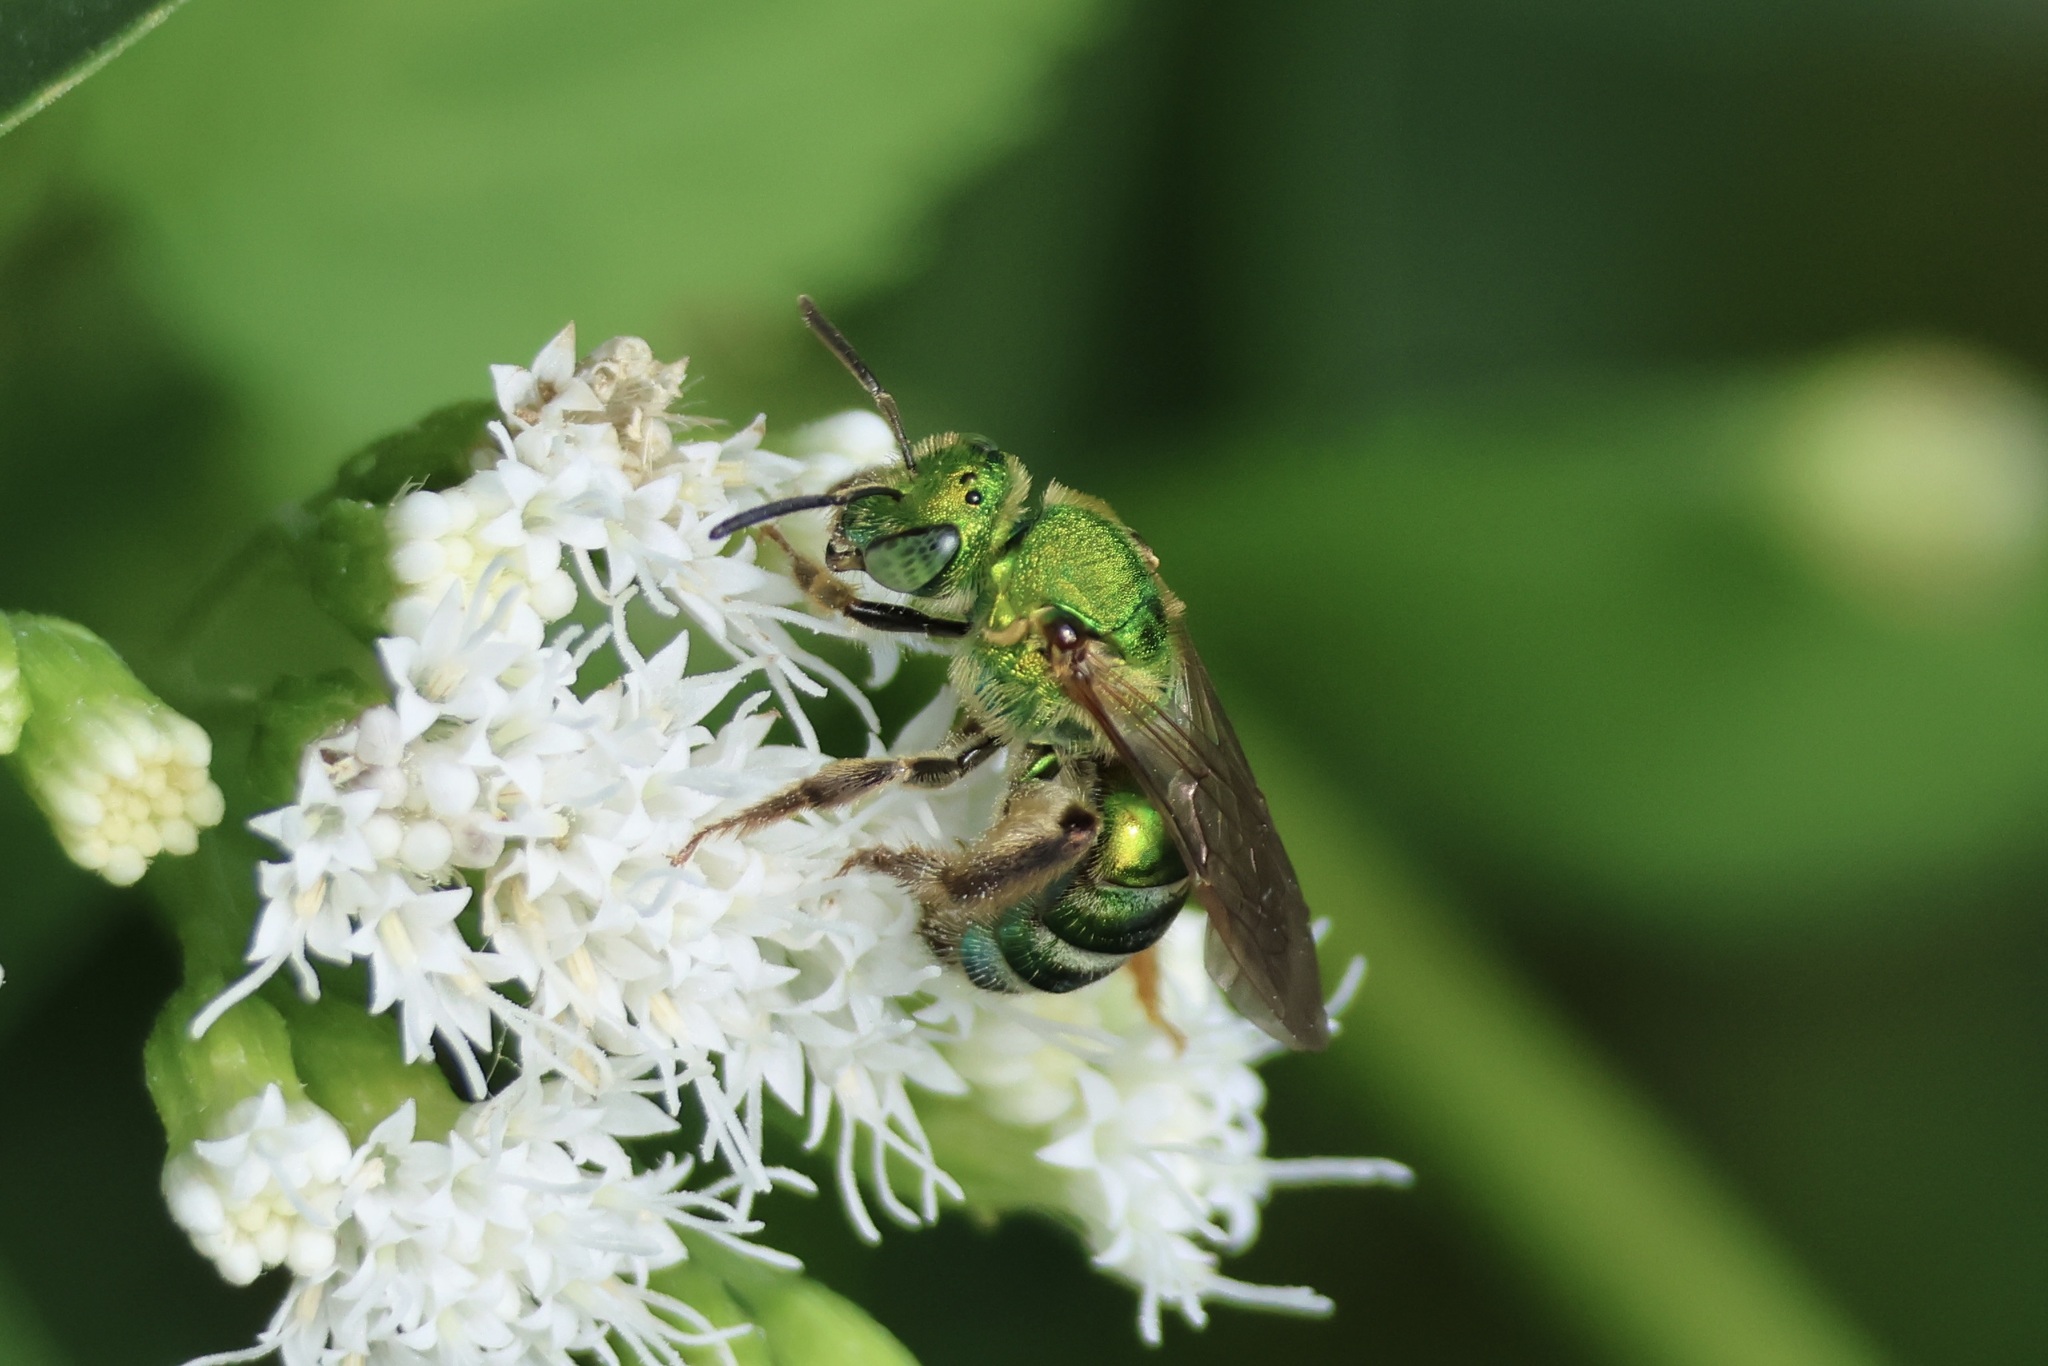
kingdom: Animalia
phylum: Arthropoda
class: Insecta
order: Hymenoptera
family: Halictidae
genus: Agapostemon
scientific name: Agapostemon sericeus
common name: Silky striped sweat bee
